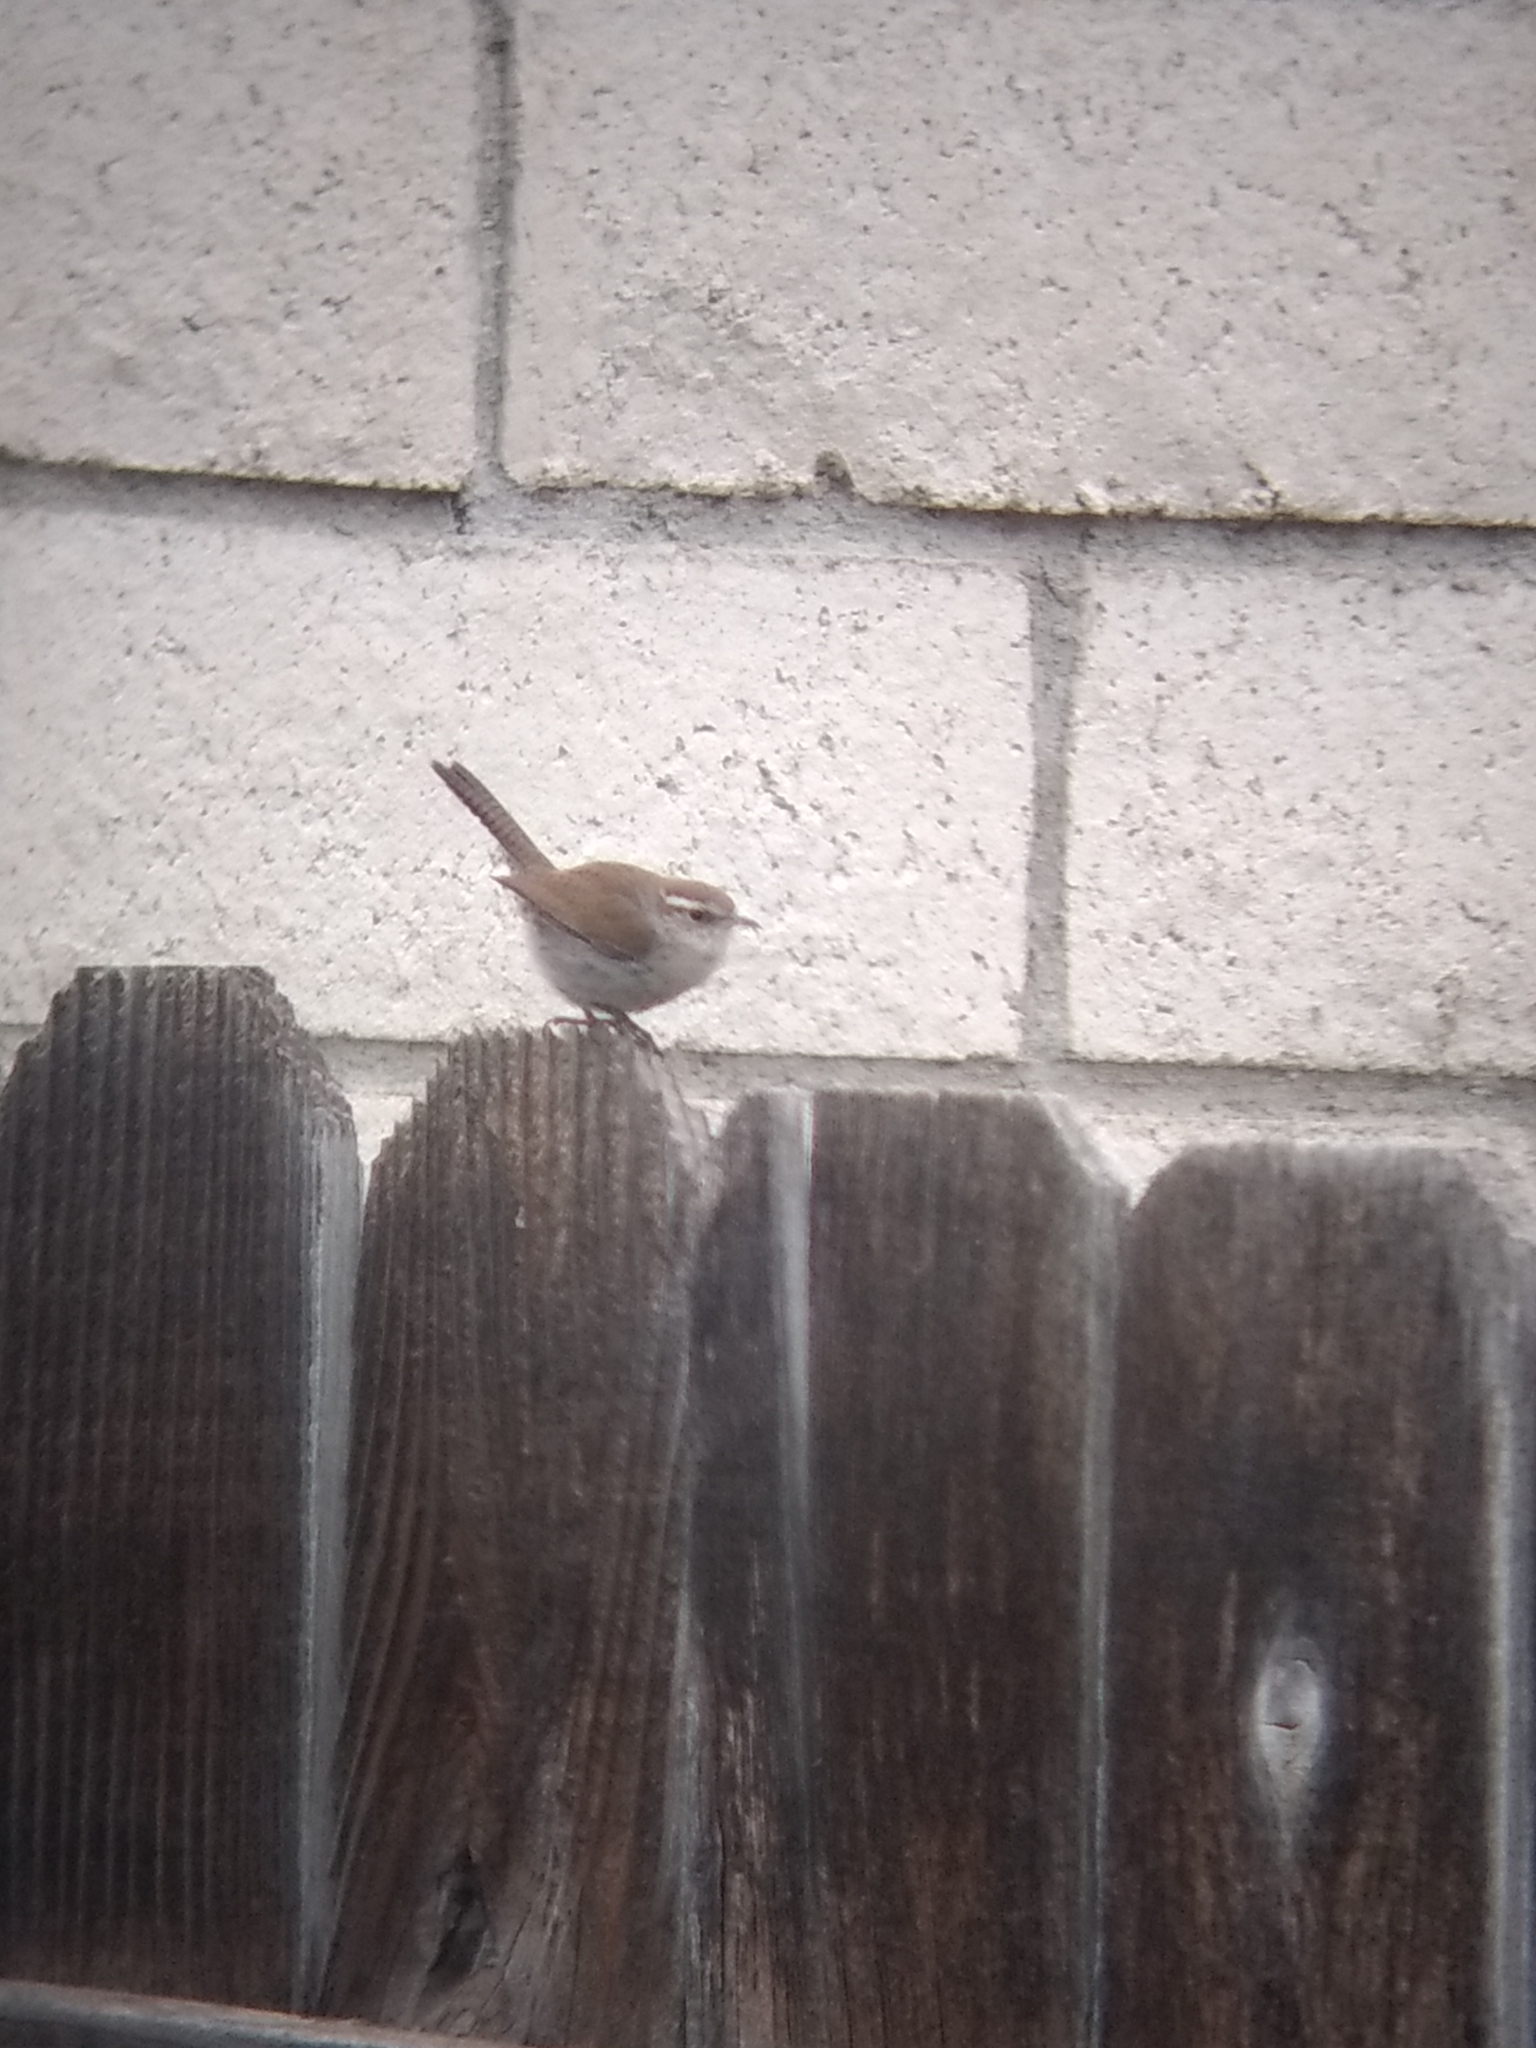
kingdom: Animalia
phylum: Chordata
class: Aves
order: Passeriformes
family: Troglodytidae
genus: Thryomanes
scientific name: Thryomanes bewickii
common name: Bewick's wren
